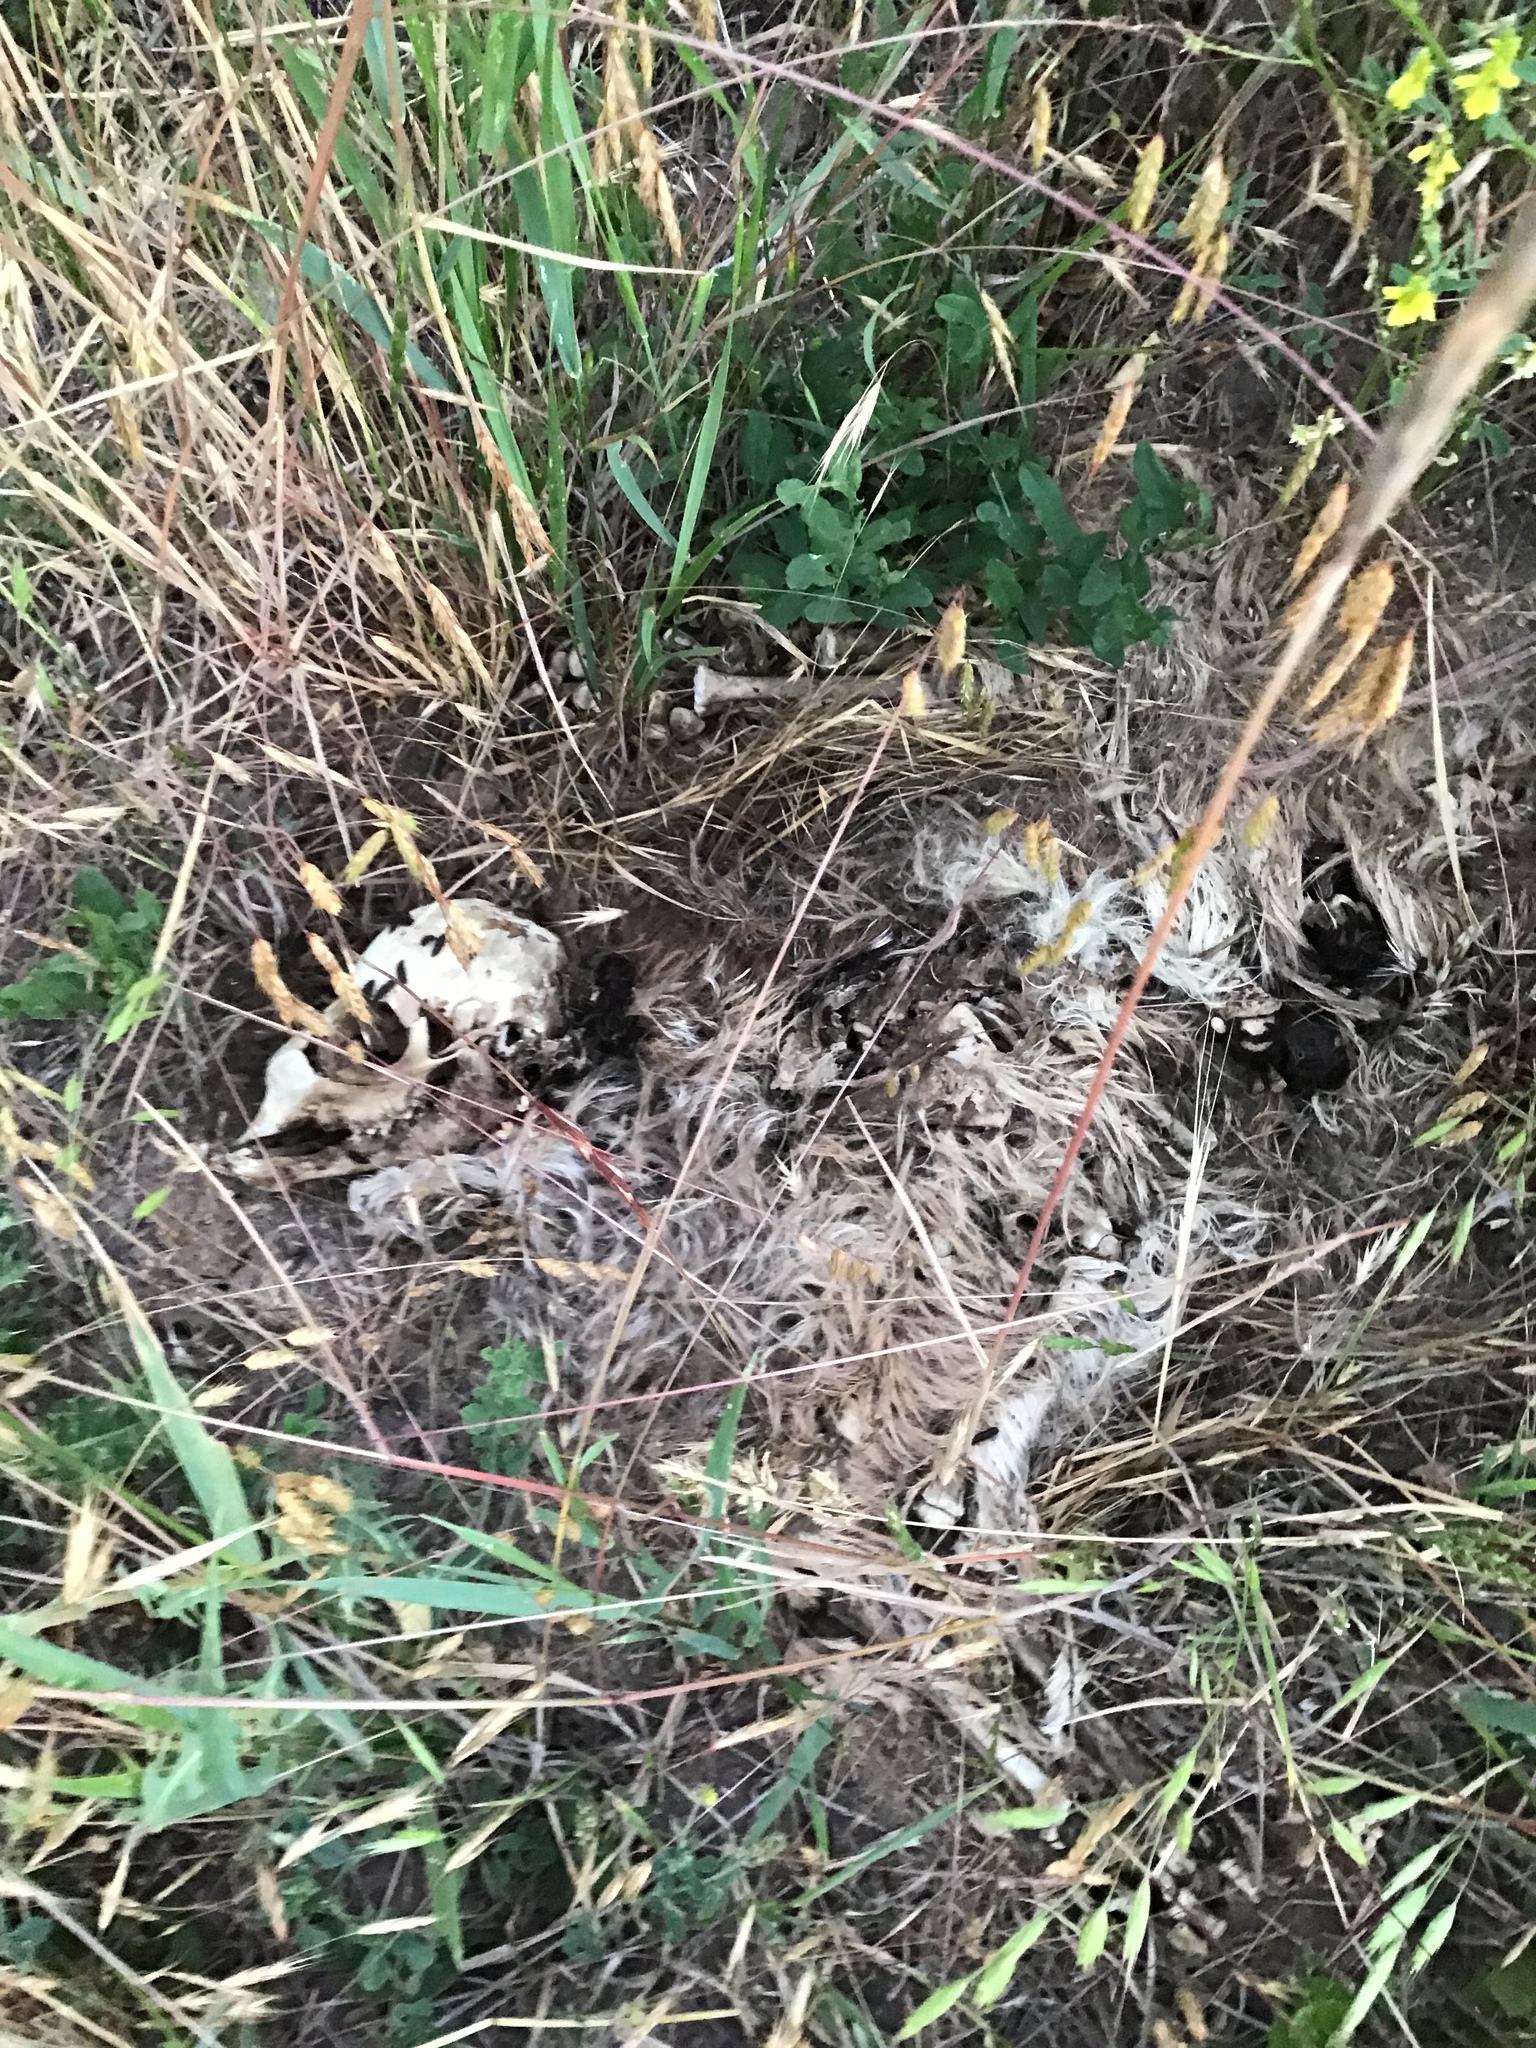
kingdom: Animalia
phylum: Chordata
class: Mammalia
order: Artiodactyla
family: Cervidae
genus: Odocoileus
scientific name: Odocoileus hemionus
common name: Mule deer
